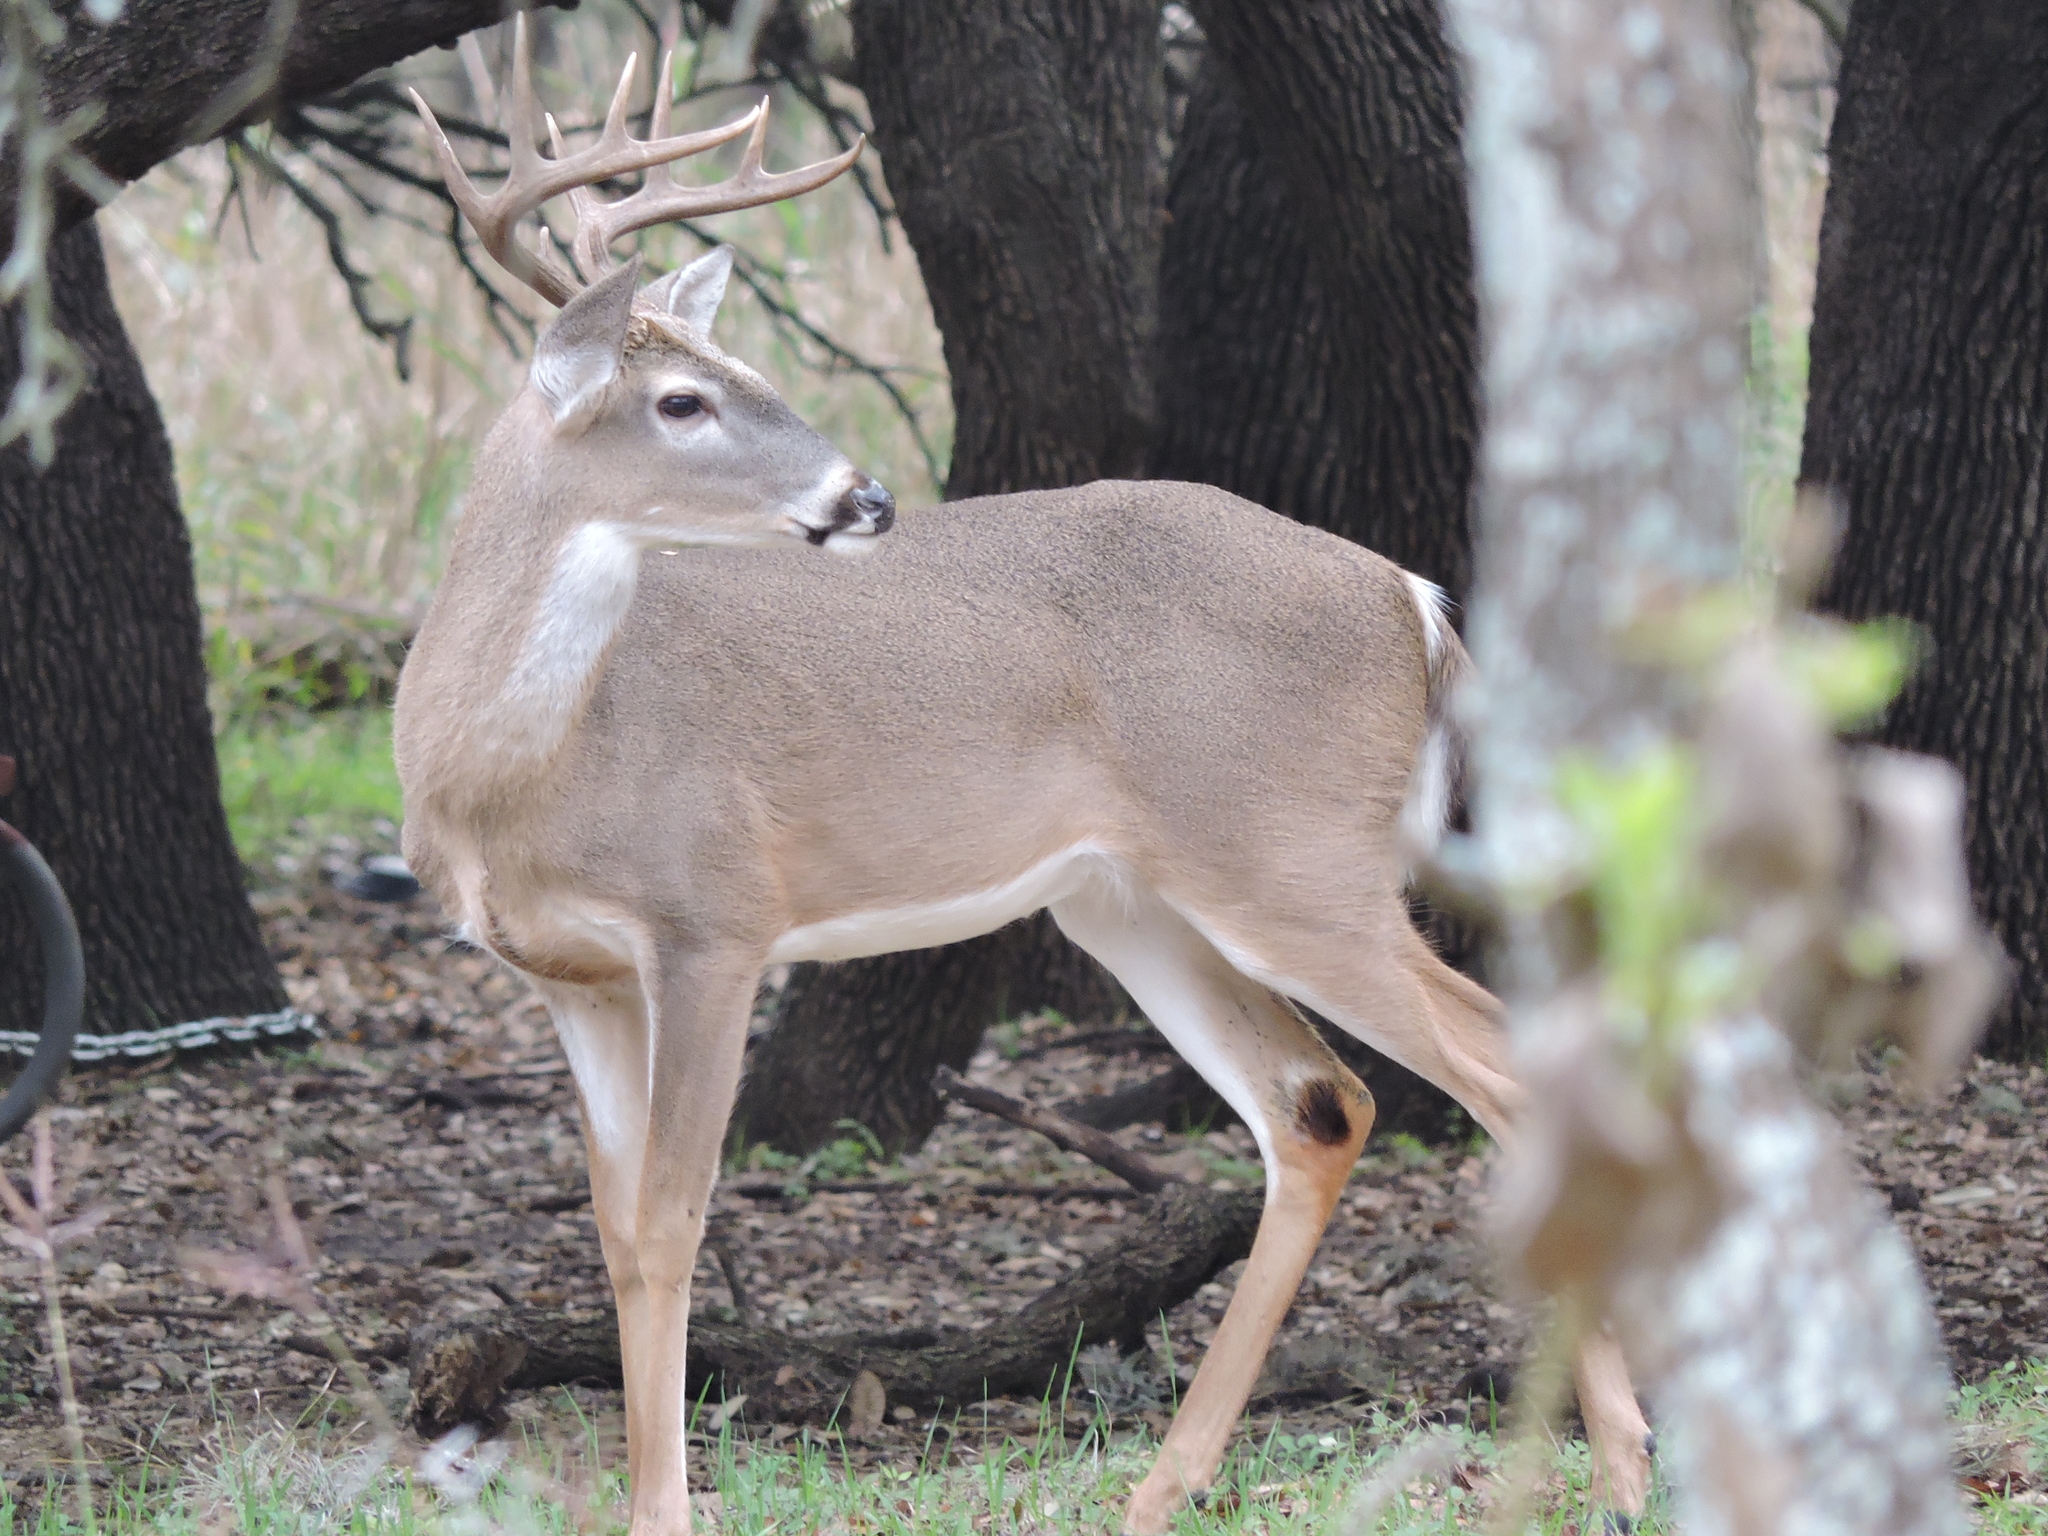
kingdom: Animalia
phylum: Chordata
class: Mammalia
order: Artiodactyla
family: Cervidae
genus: Odocoileus
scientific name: Odocoileus virginianus
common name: White-tailed deer
